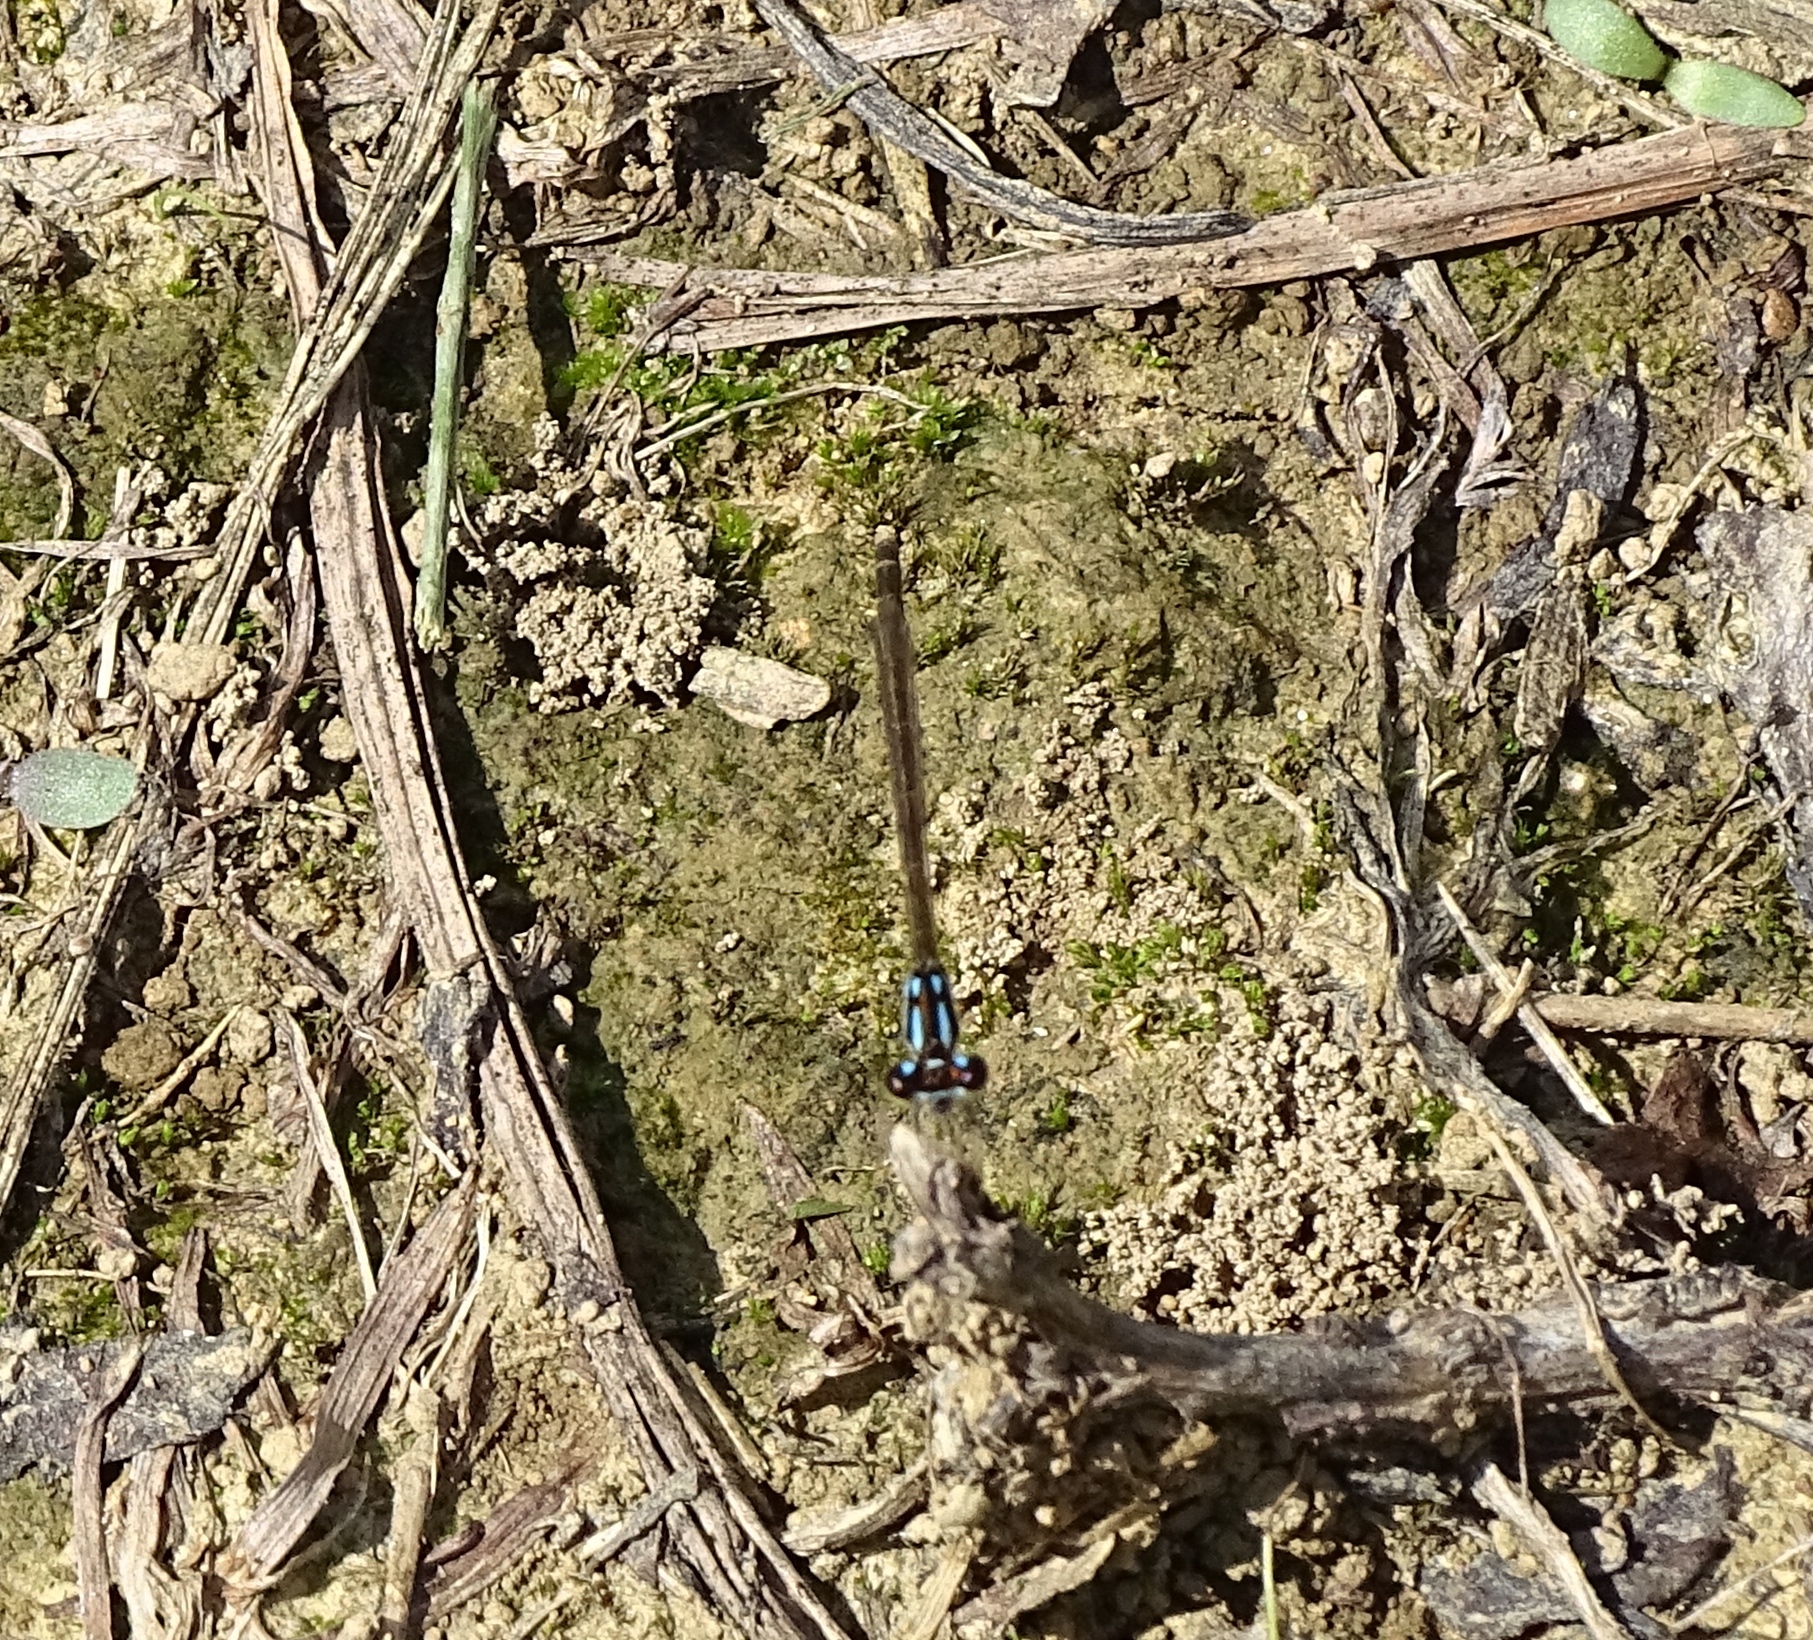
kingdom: Animalia
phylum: Arthropoda
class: Insecta
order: Odonata
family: Coenagrionidae
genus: Ischnura
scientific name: Ischnura posita
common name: Fragile forktail
